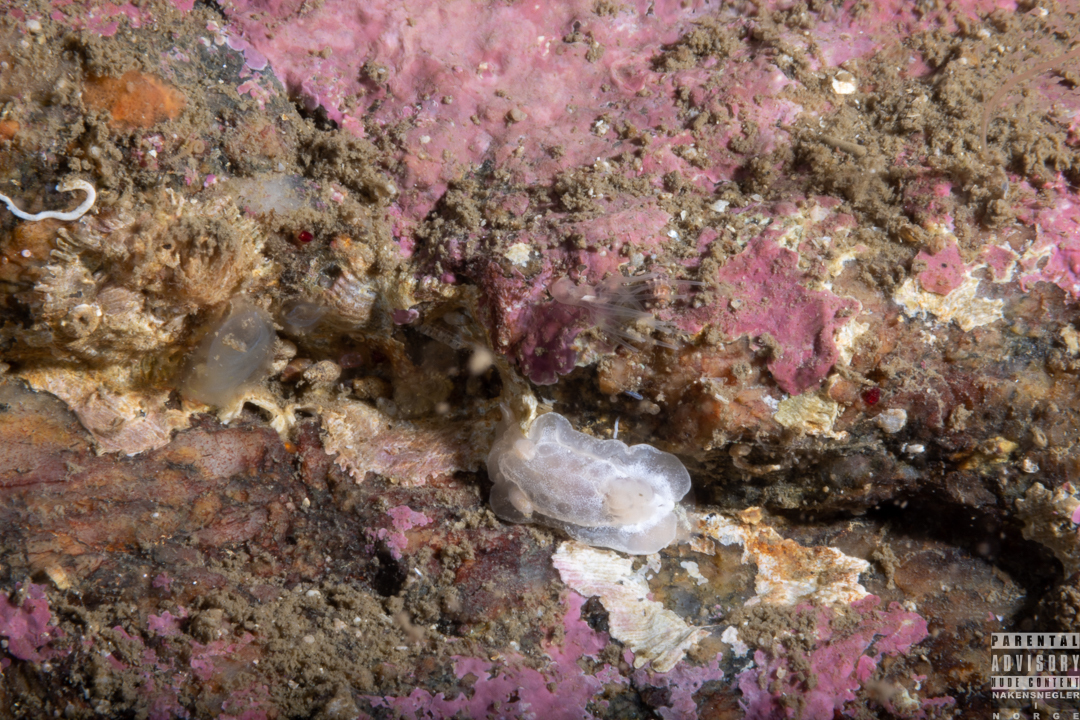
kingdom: Animalia
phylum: Mollusca
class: Gastropoda
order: Nudibranchia
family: Goniodorididae
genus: Okenia
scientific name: Okenia
